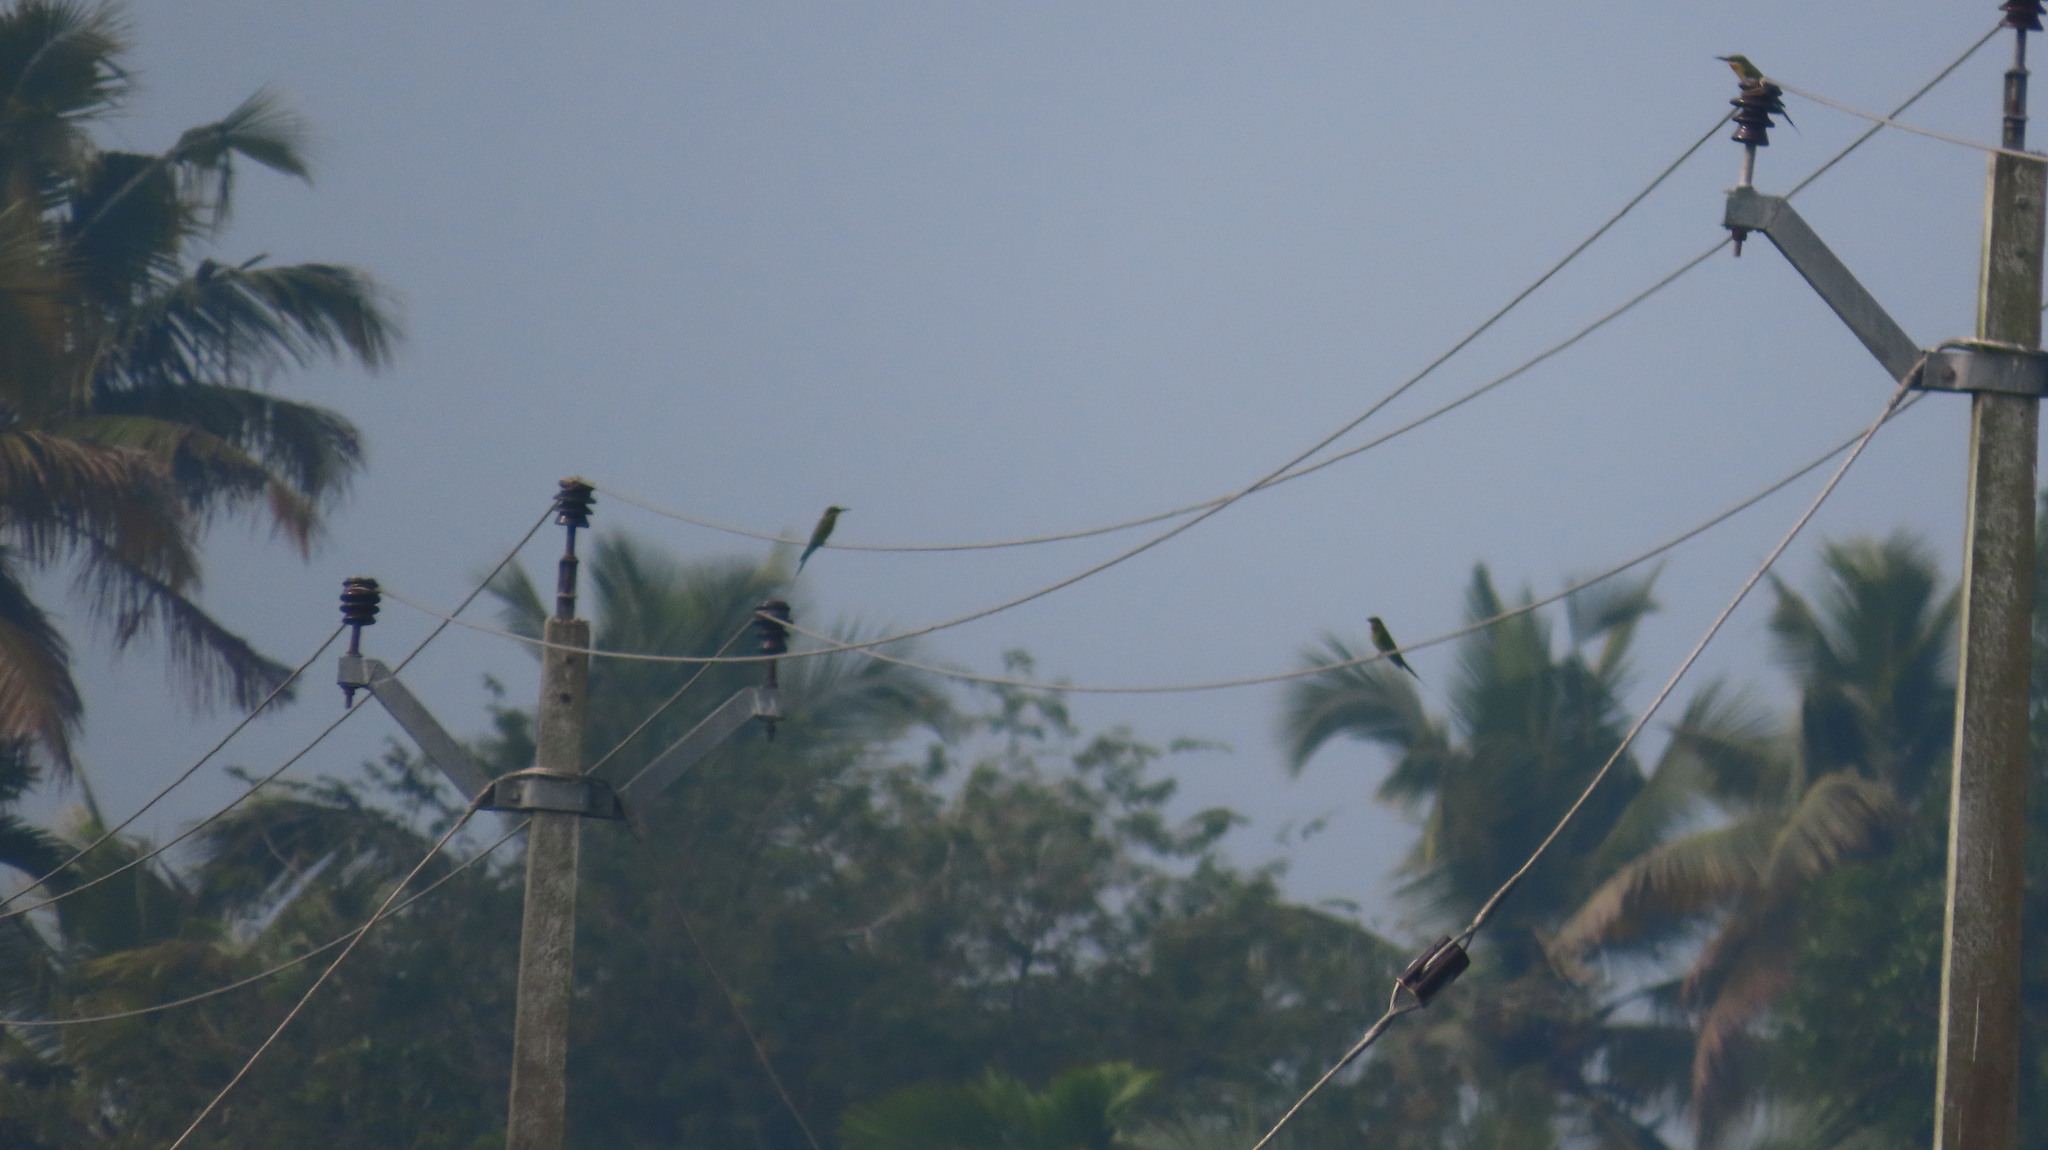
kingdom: Animalia
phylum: Chordata
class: Aves
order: Coraciiformes
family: Meropidae
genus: Merops
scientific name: Merops philippinus
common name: Blue-tailed bee-eater
